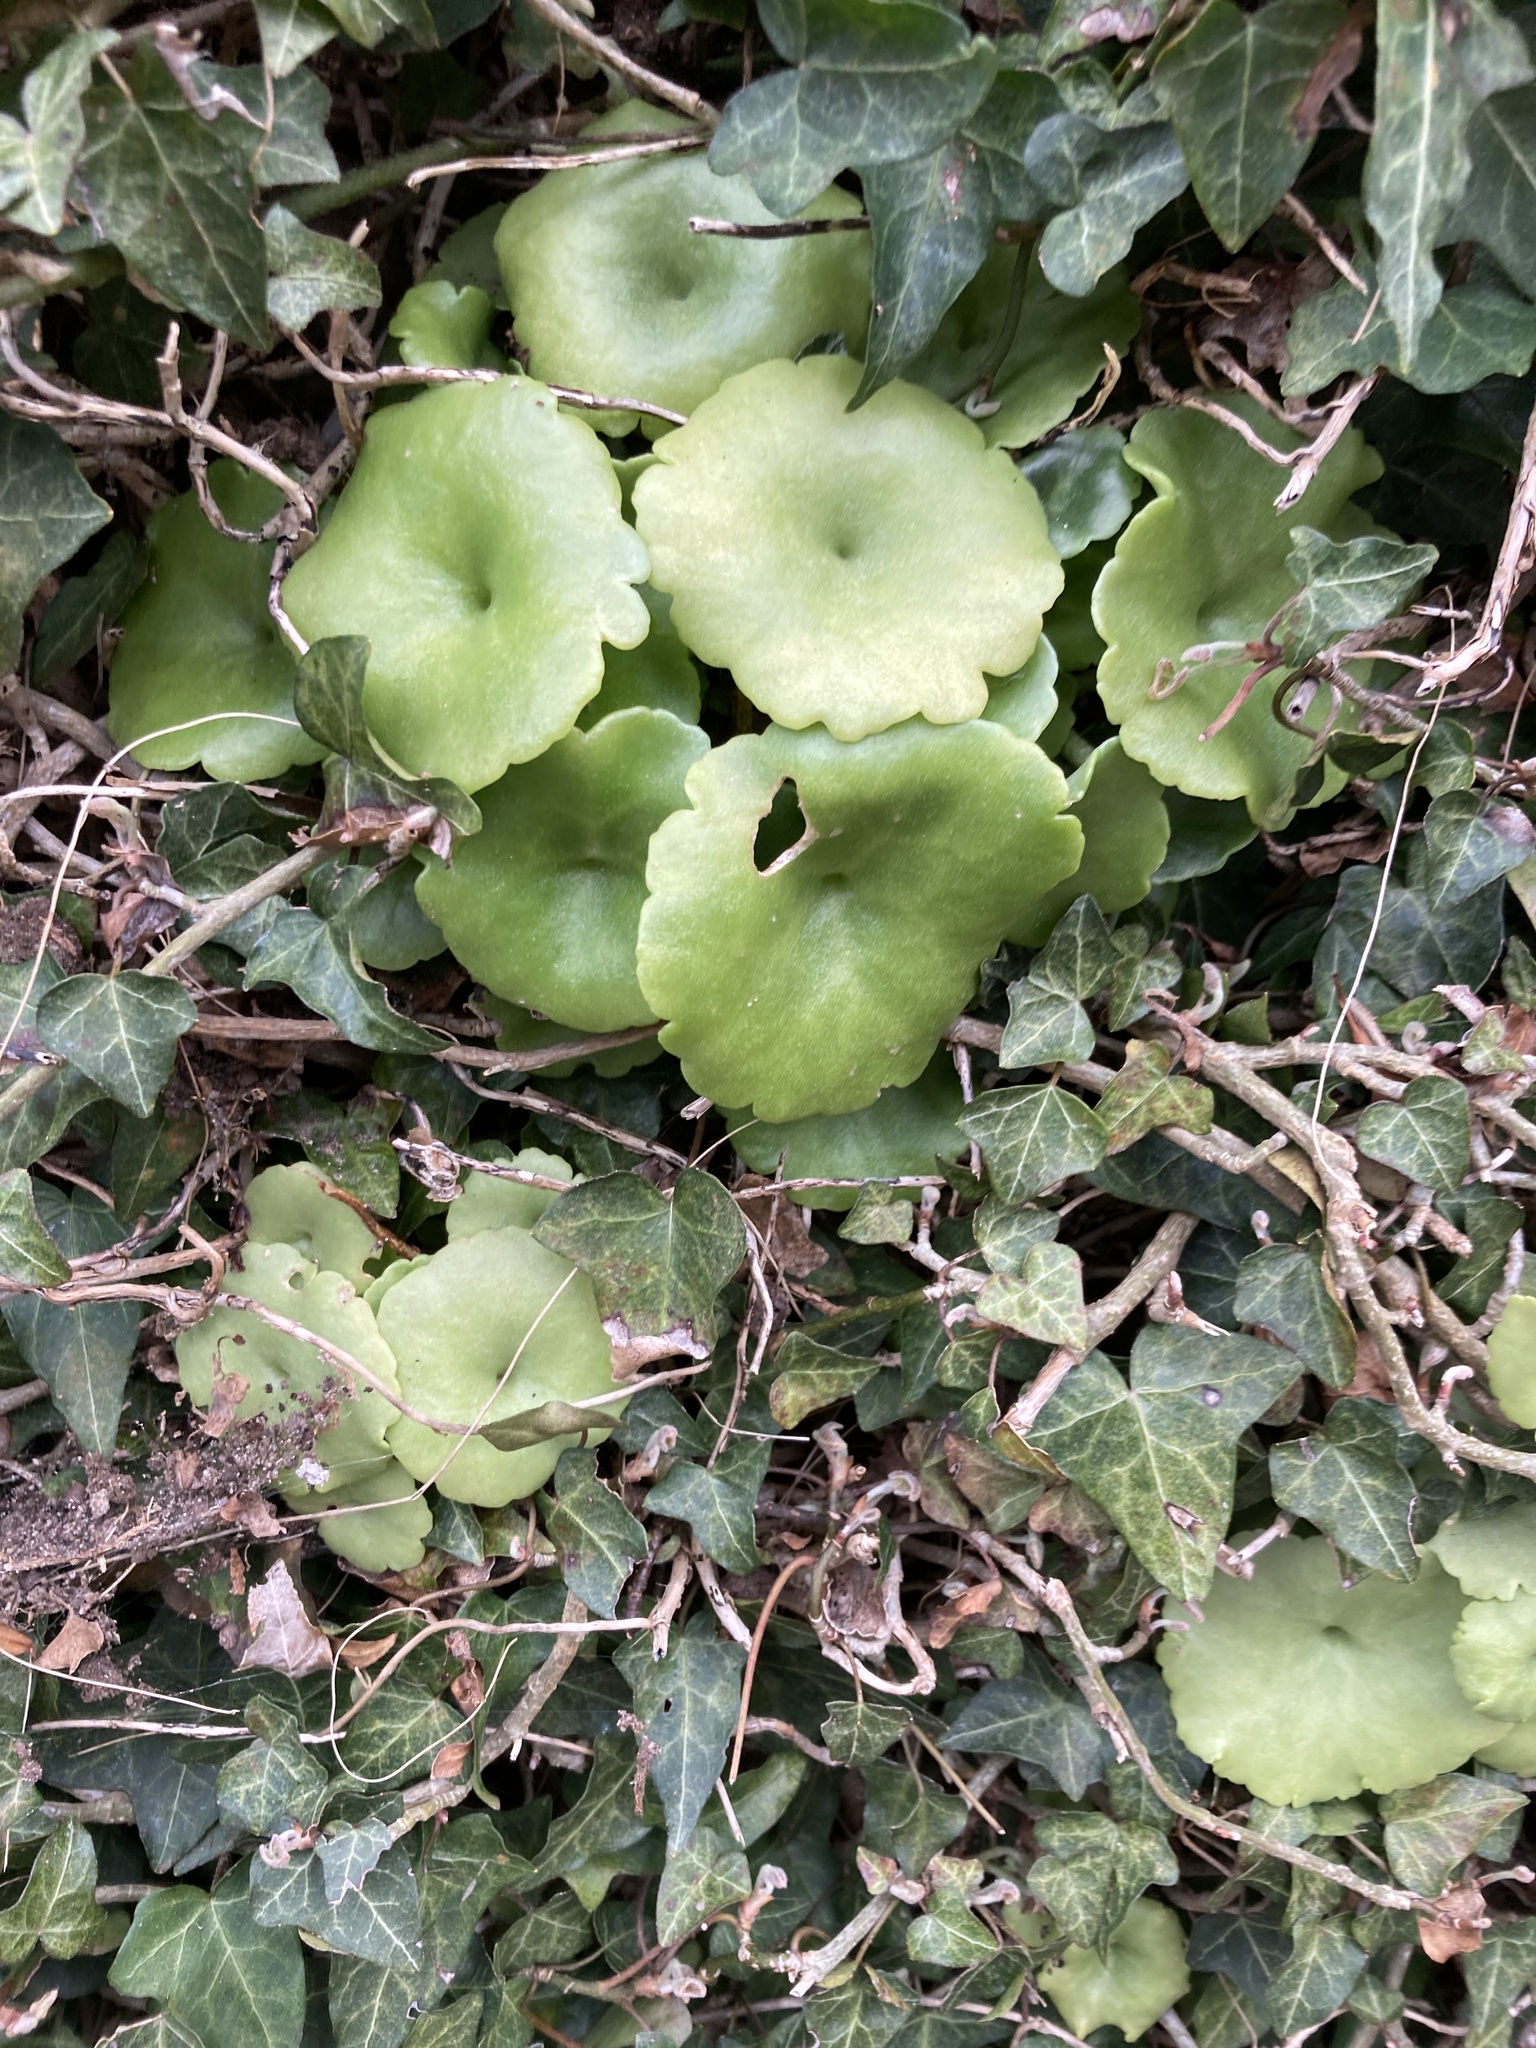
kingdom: Plantae
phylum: Tracheophyta
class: Magnoliopsida
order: Saxifragales
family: Crassulaceae
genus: Umbilicus
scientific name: Umbilicus rupestris
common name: Navelwort
